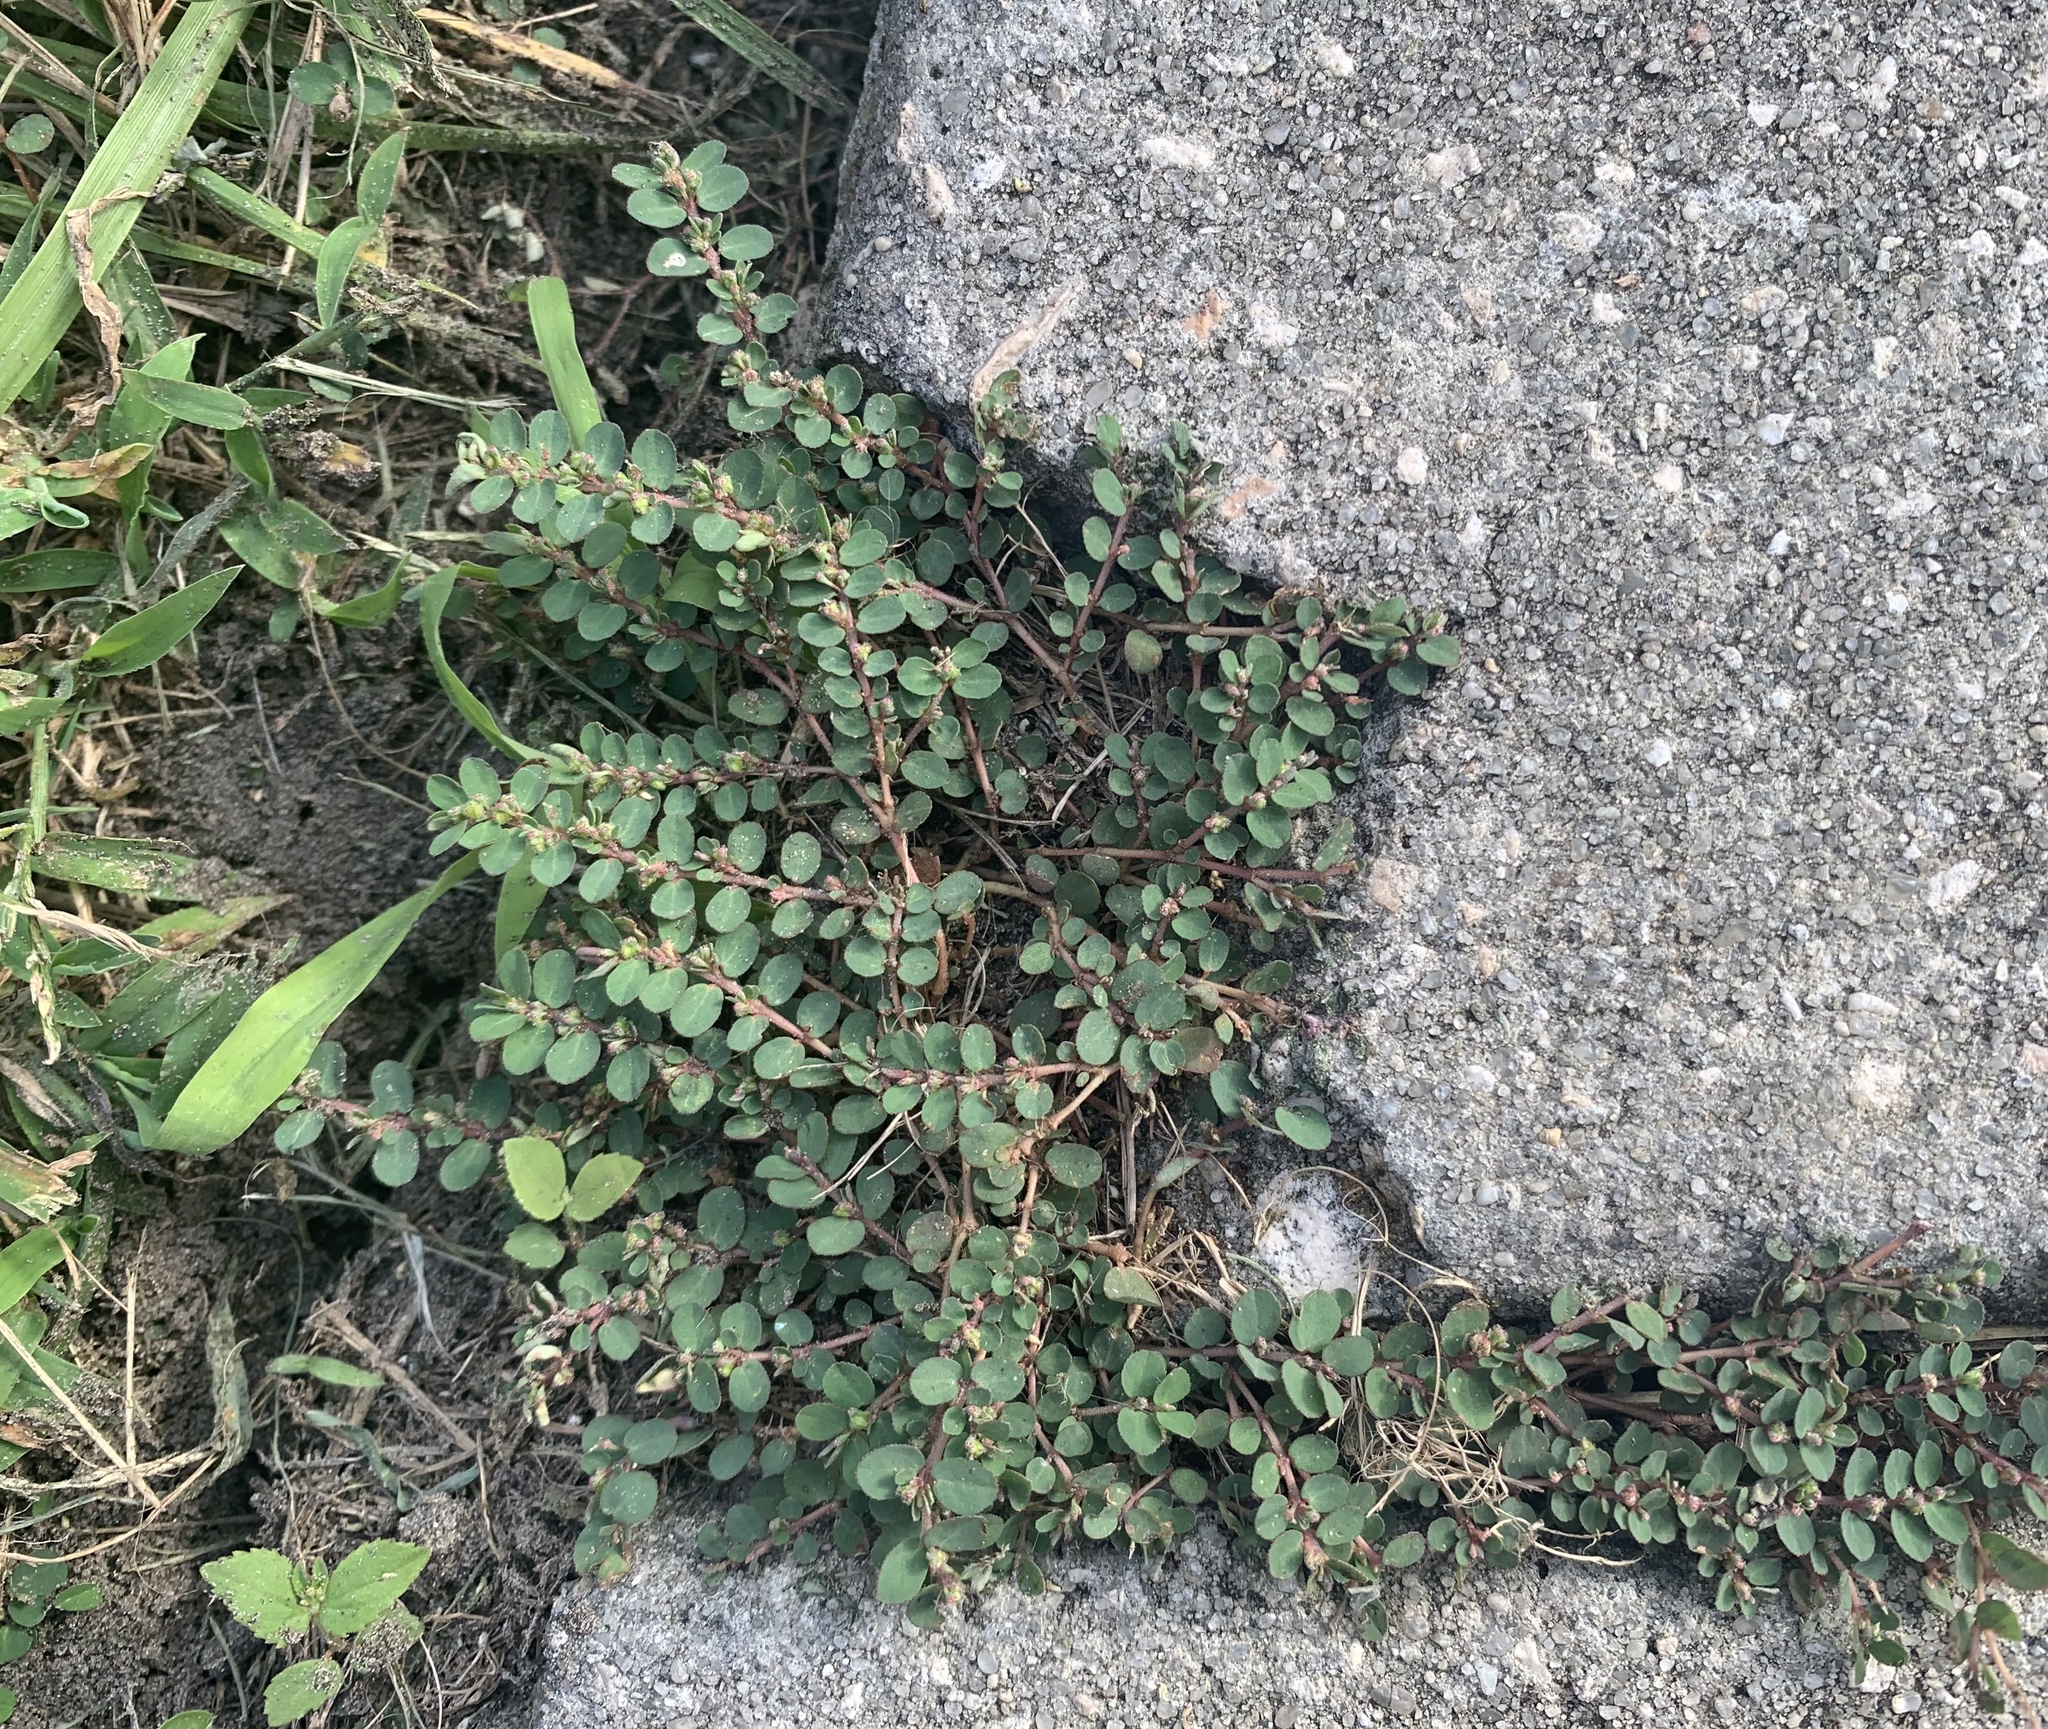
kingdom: Plantae
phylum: Tracheophyta
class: Magnoliopsida
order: Malpighiales
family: Euphorbiaceae
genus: Euphorbia
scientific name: Euphorbia prostrata
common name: Prostrate sandmat
